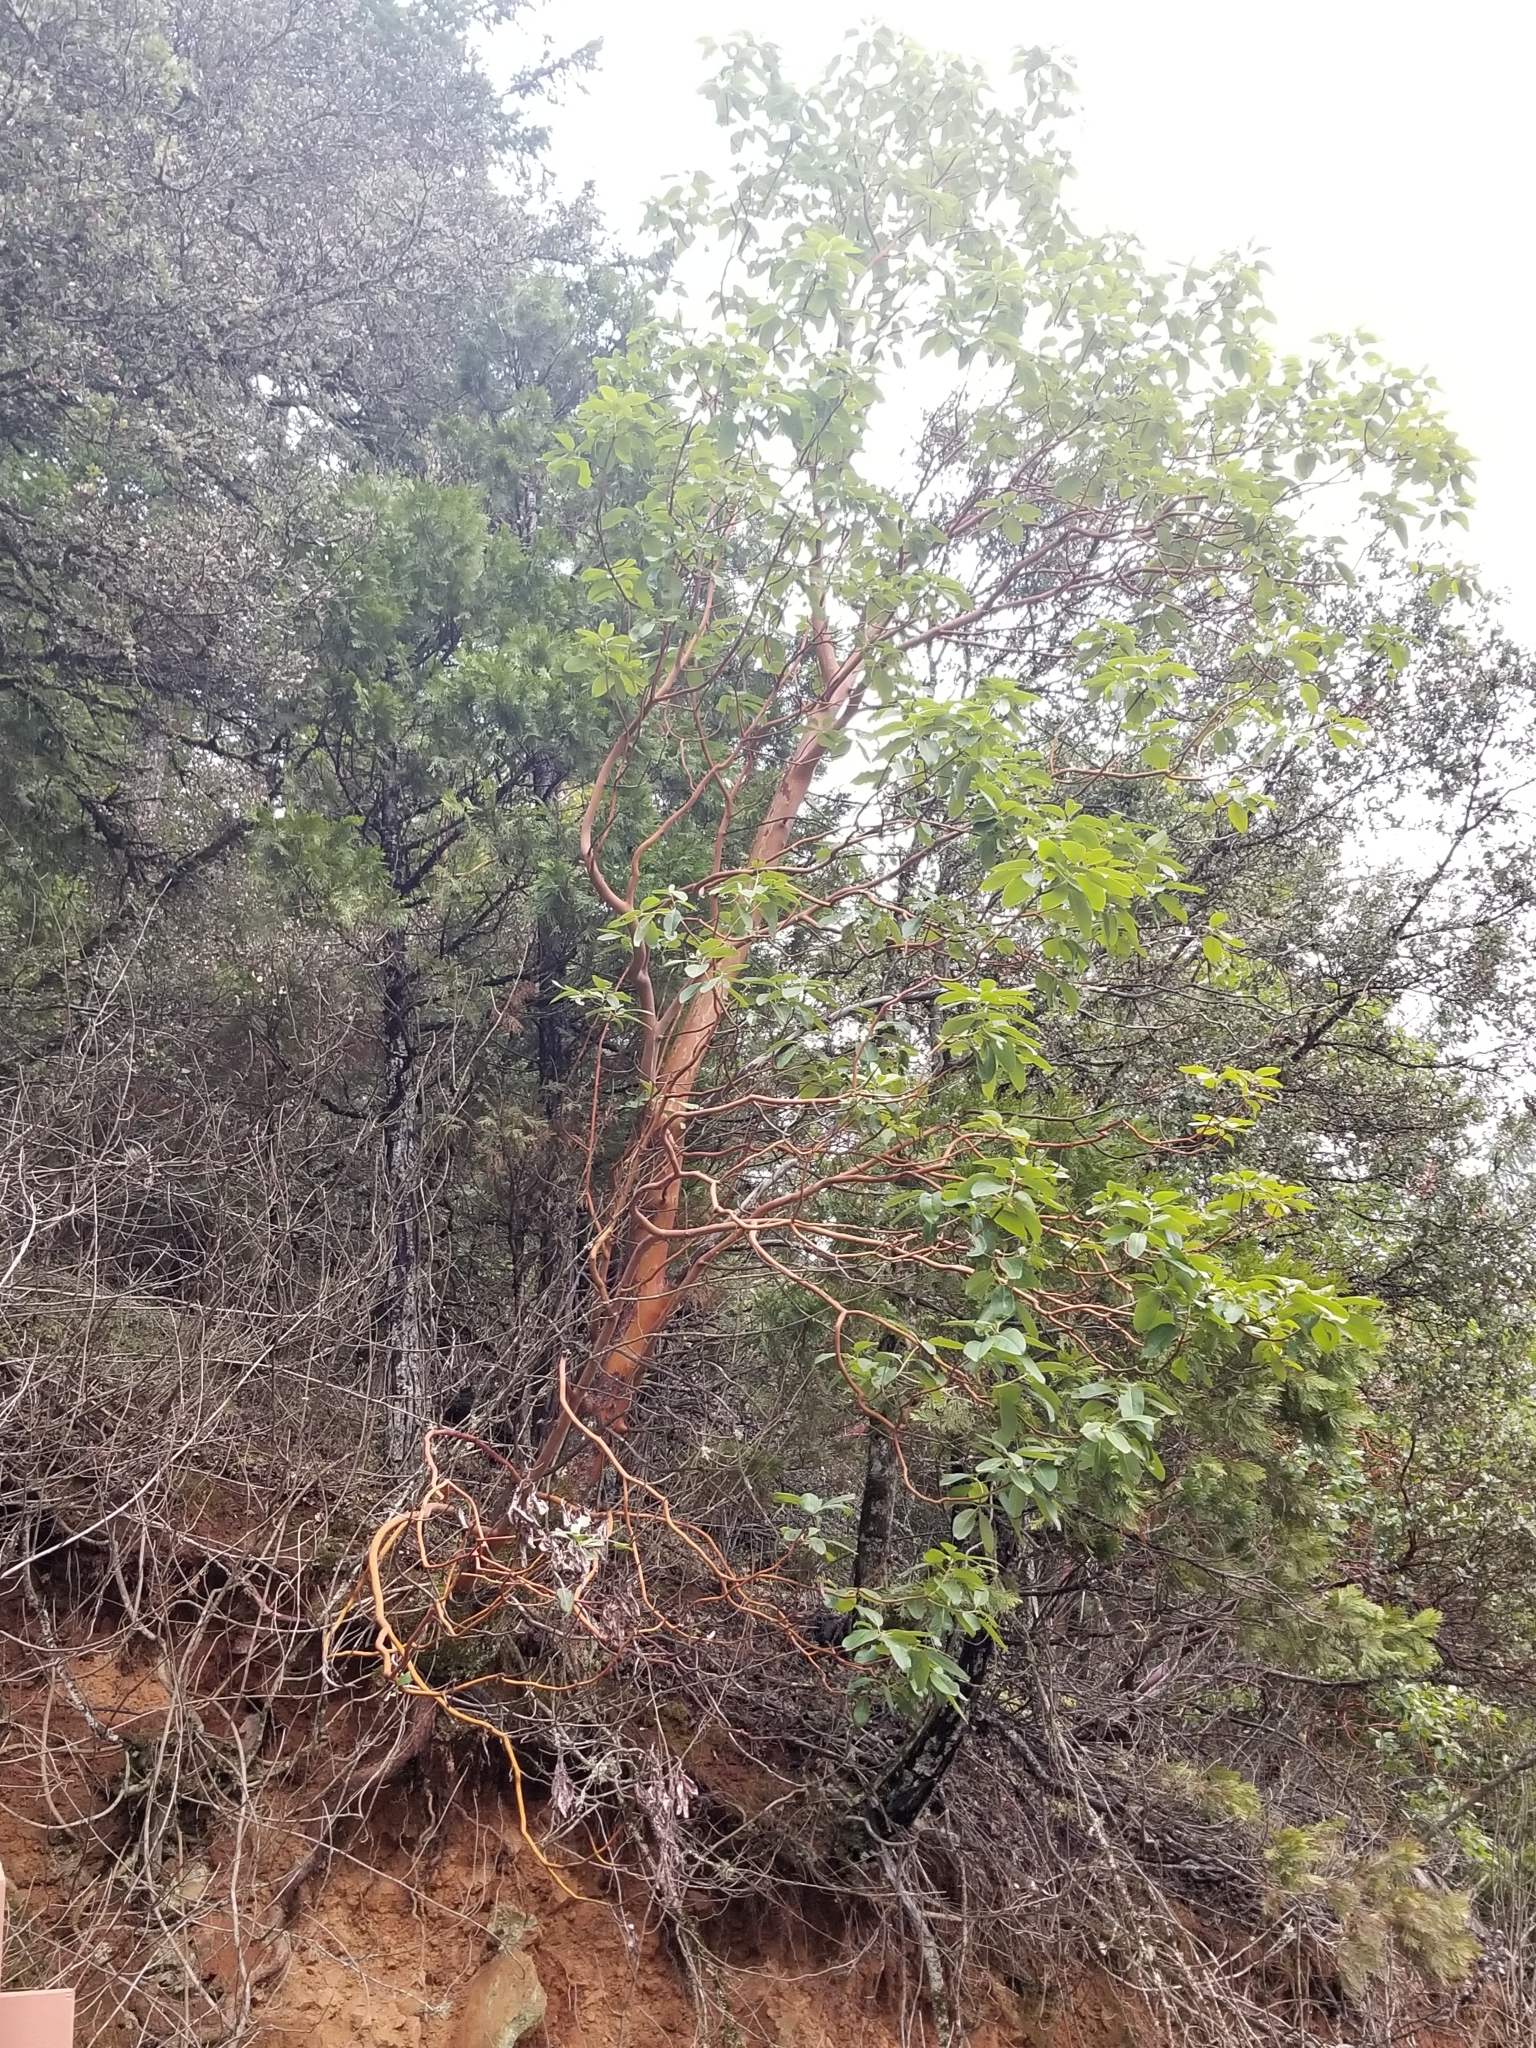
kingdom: Plantae
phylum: Tracheophyta
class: Magnoliopsida
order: Ericales
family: Ericaceae
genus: Arbutus
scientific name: Arbutus menziesii
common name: Pacific madrone
